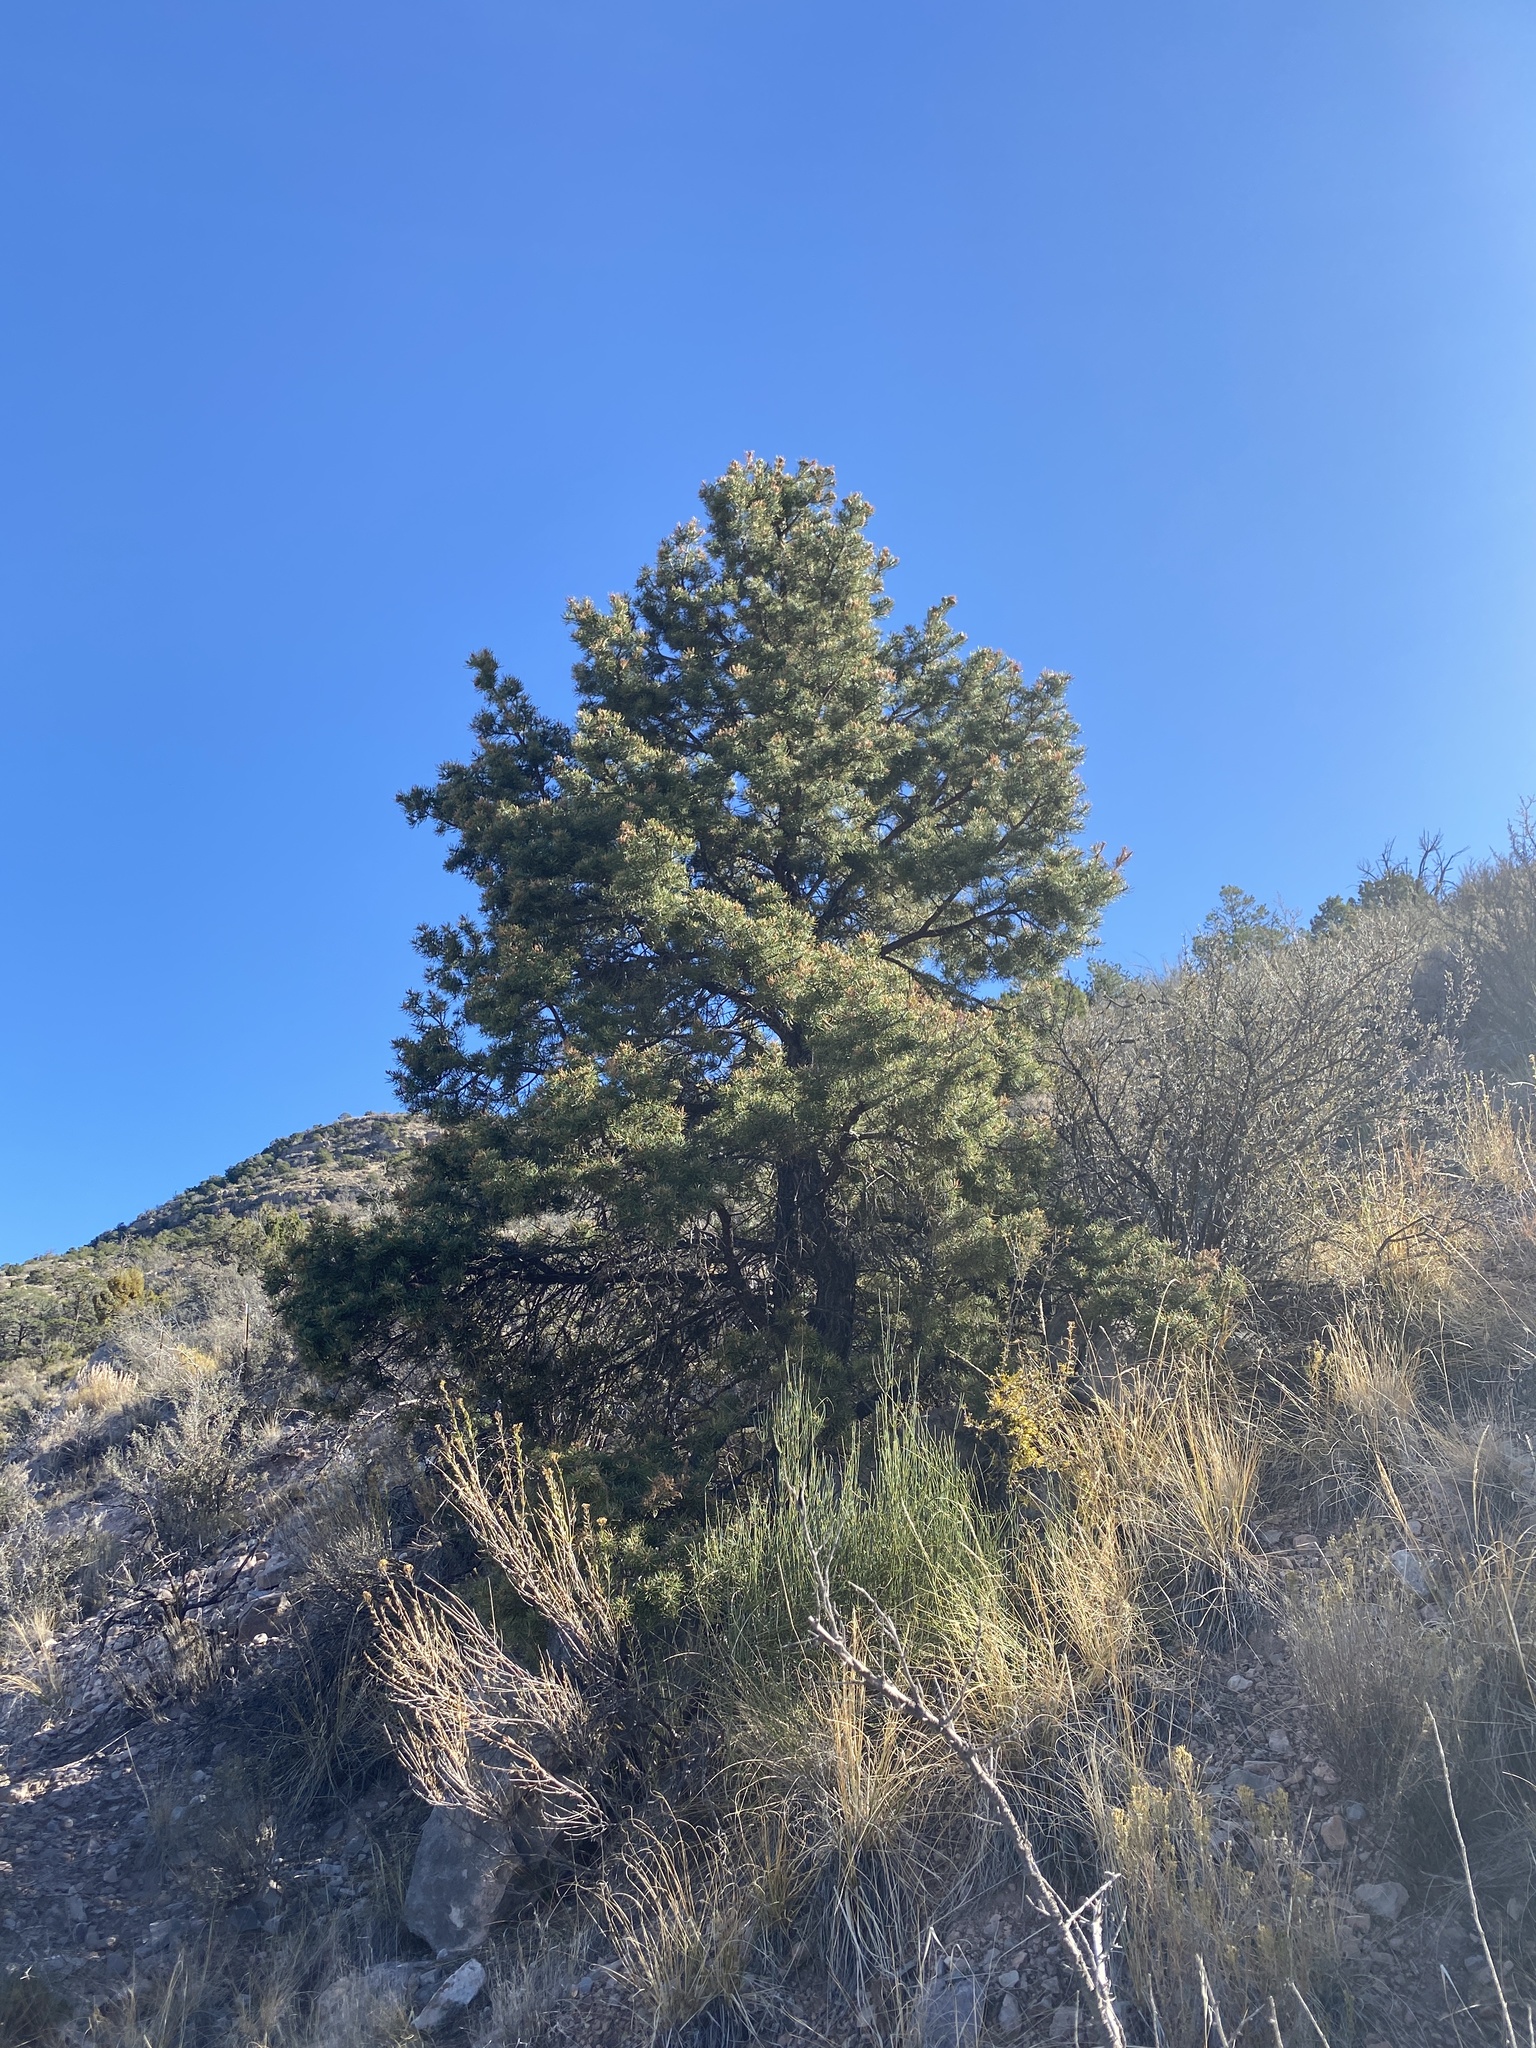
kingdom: Plantae
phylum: Tracheophyta
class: Pinopsida
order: Pinales
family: Pinaceae
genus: Pinus
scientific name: Pinus edulis
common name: Colorado pinyon
